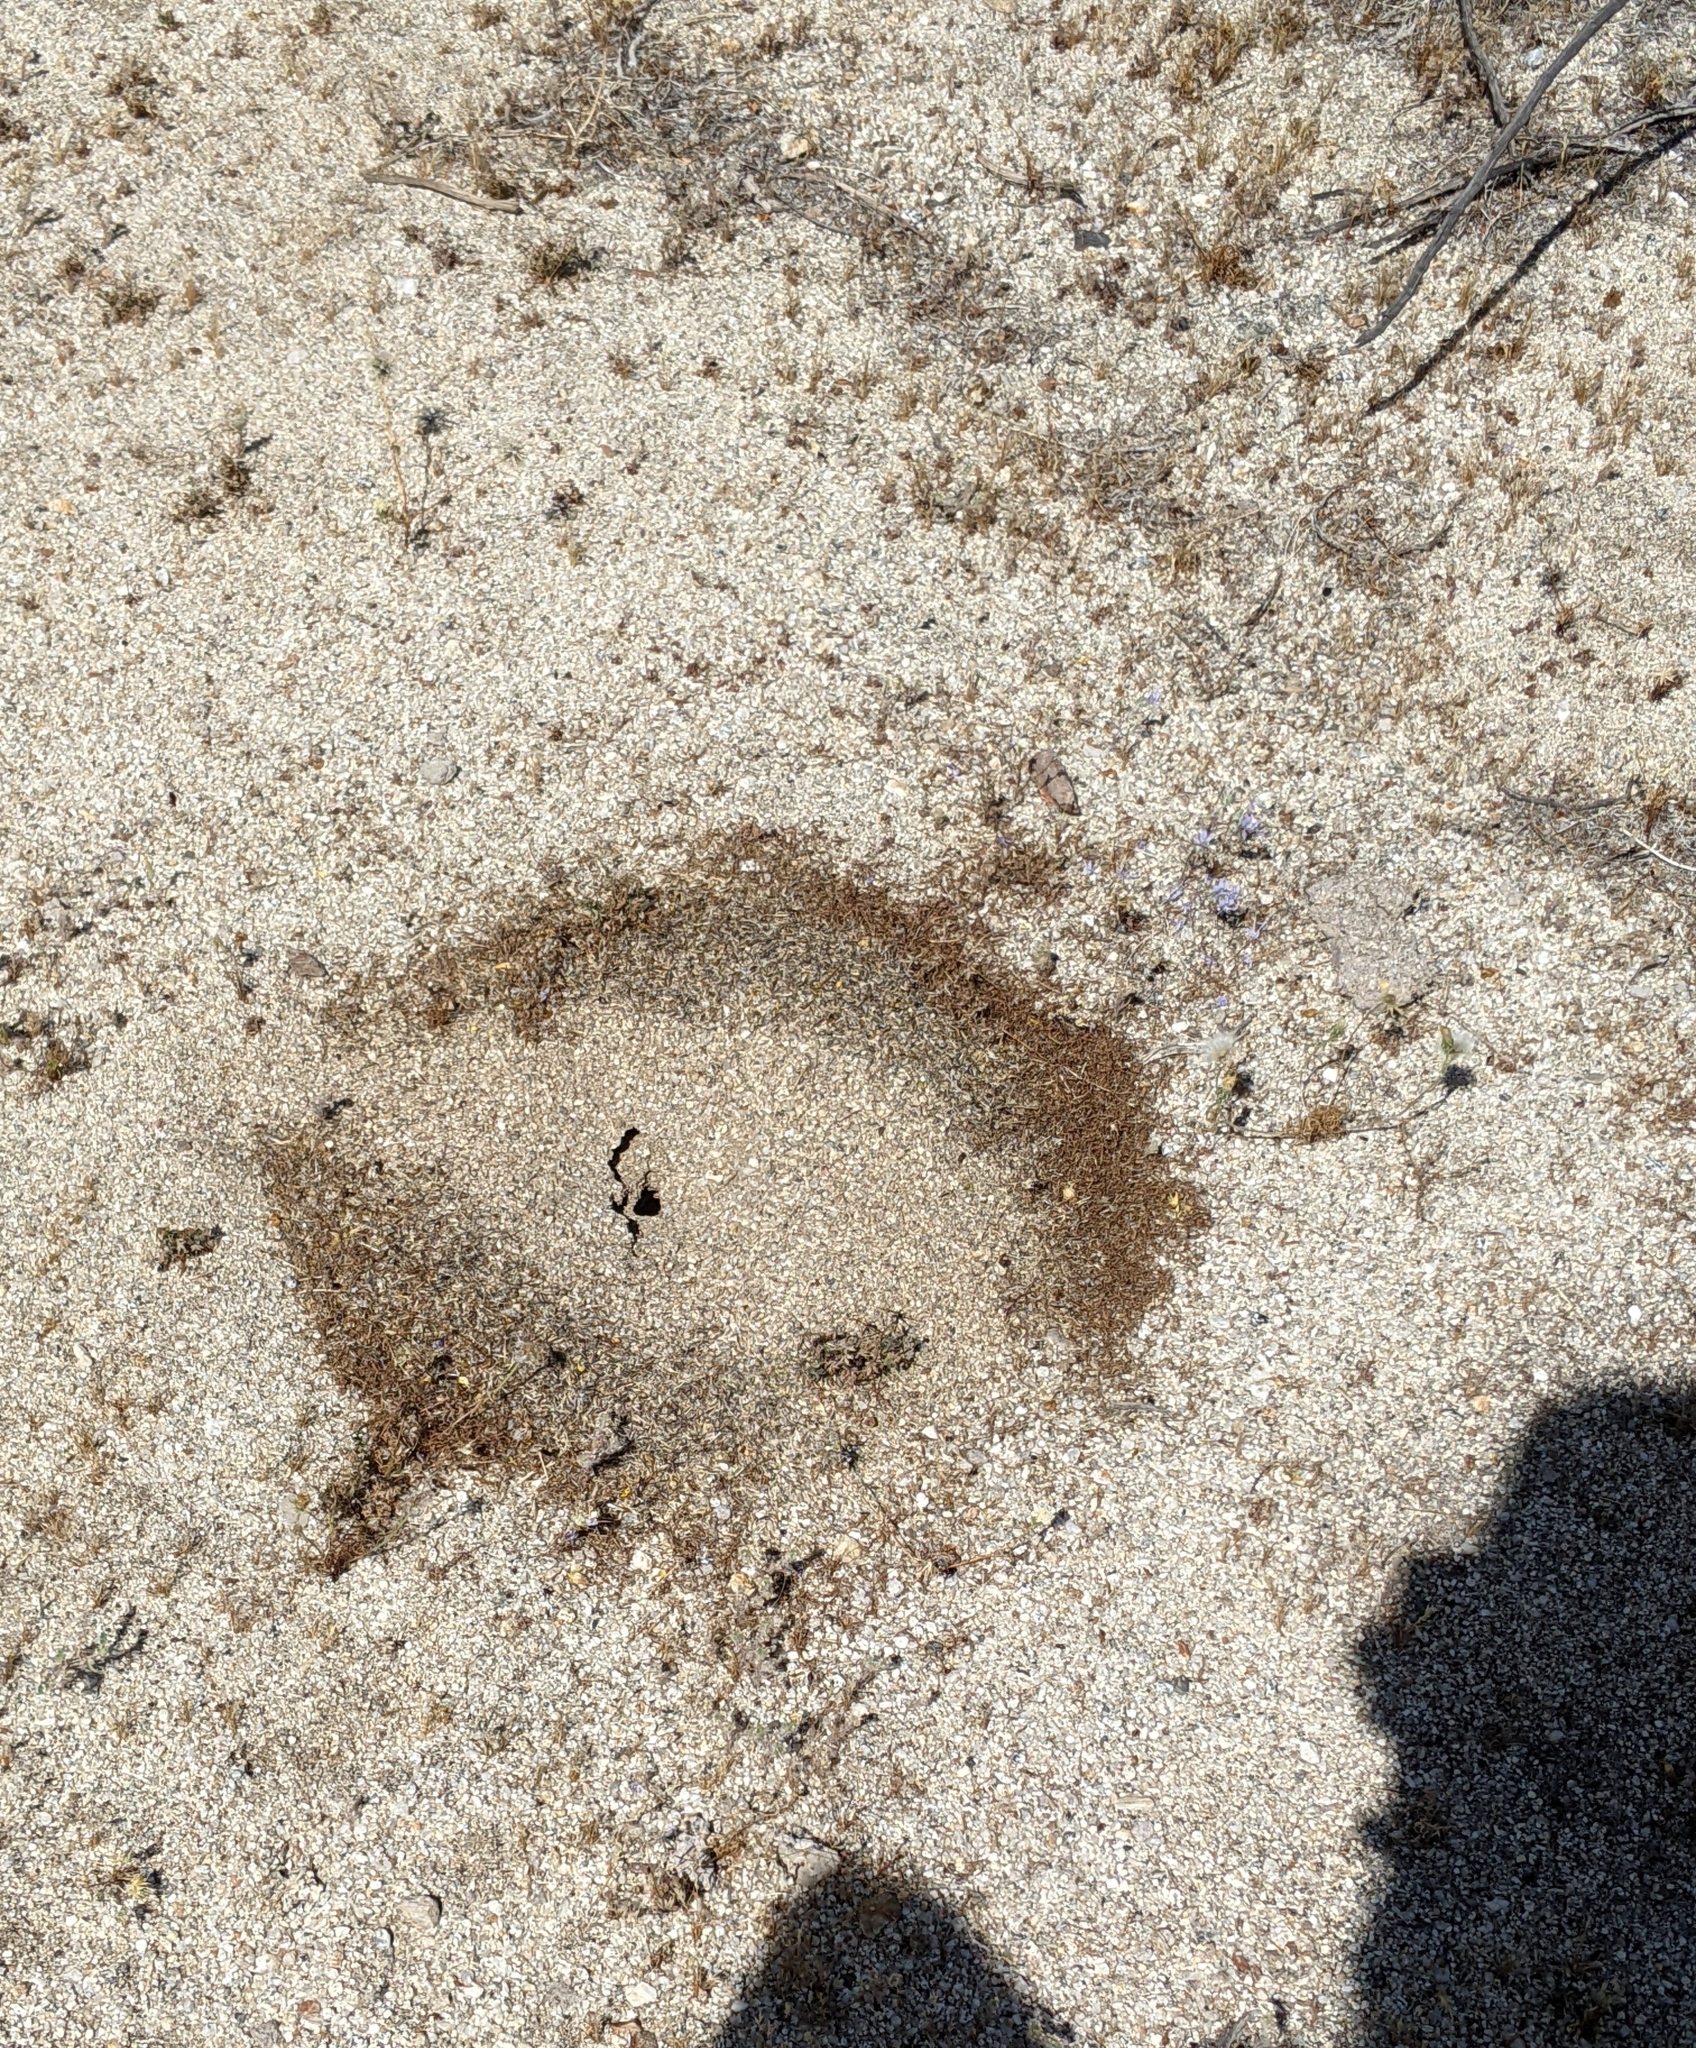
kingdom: Animalia
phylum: Arthropoda
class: Insecta
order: Hymenoptera
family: Formicidae
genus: Messor
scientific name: Messor pergandei
